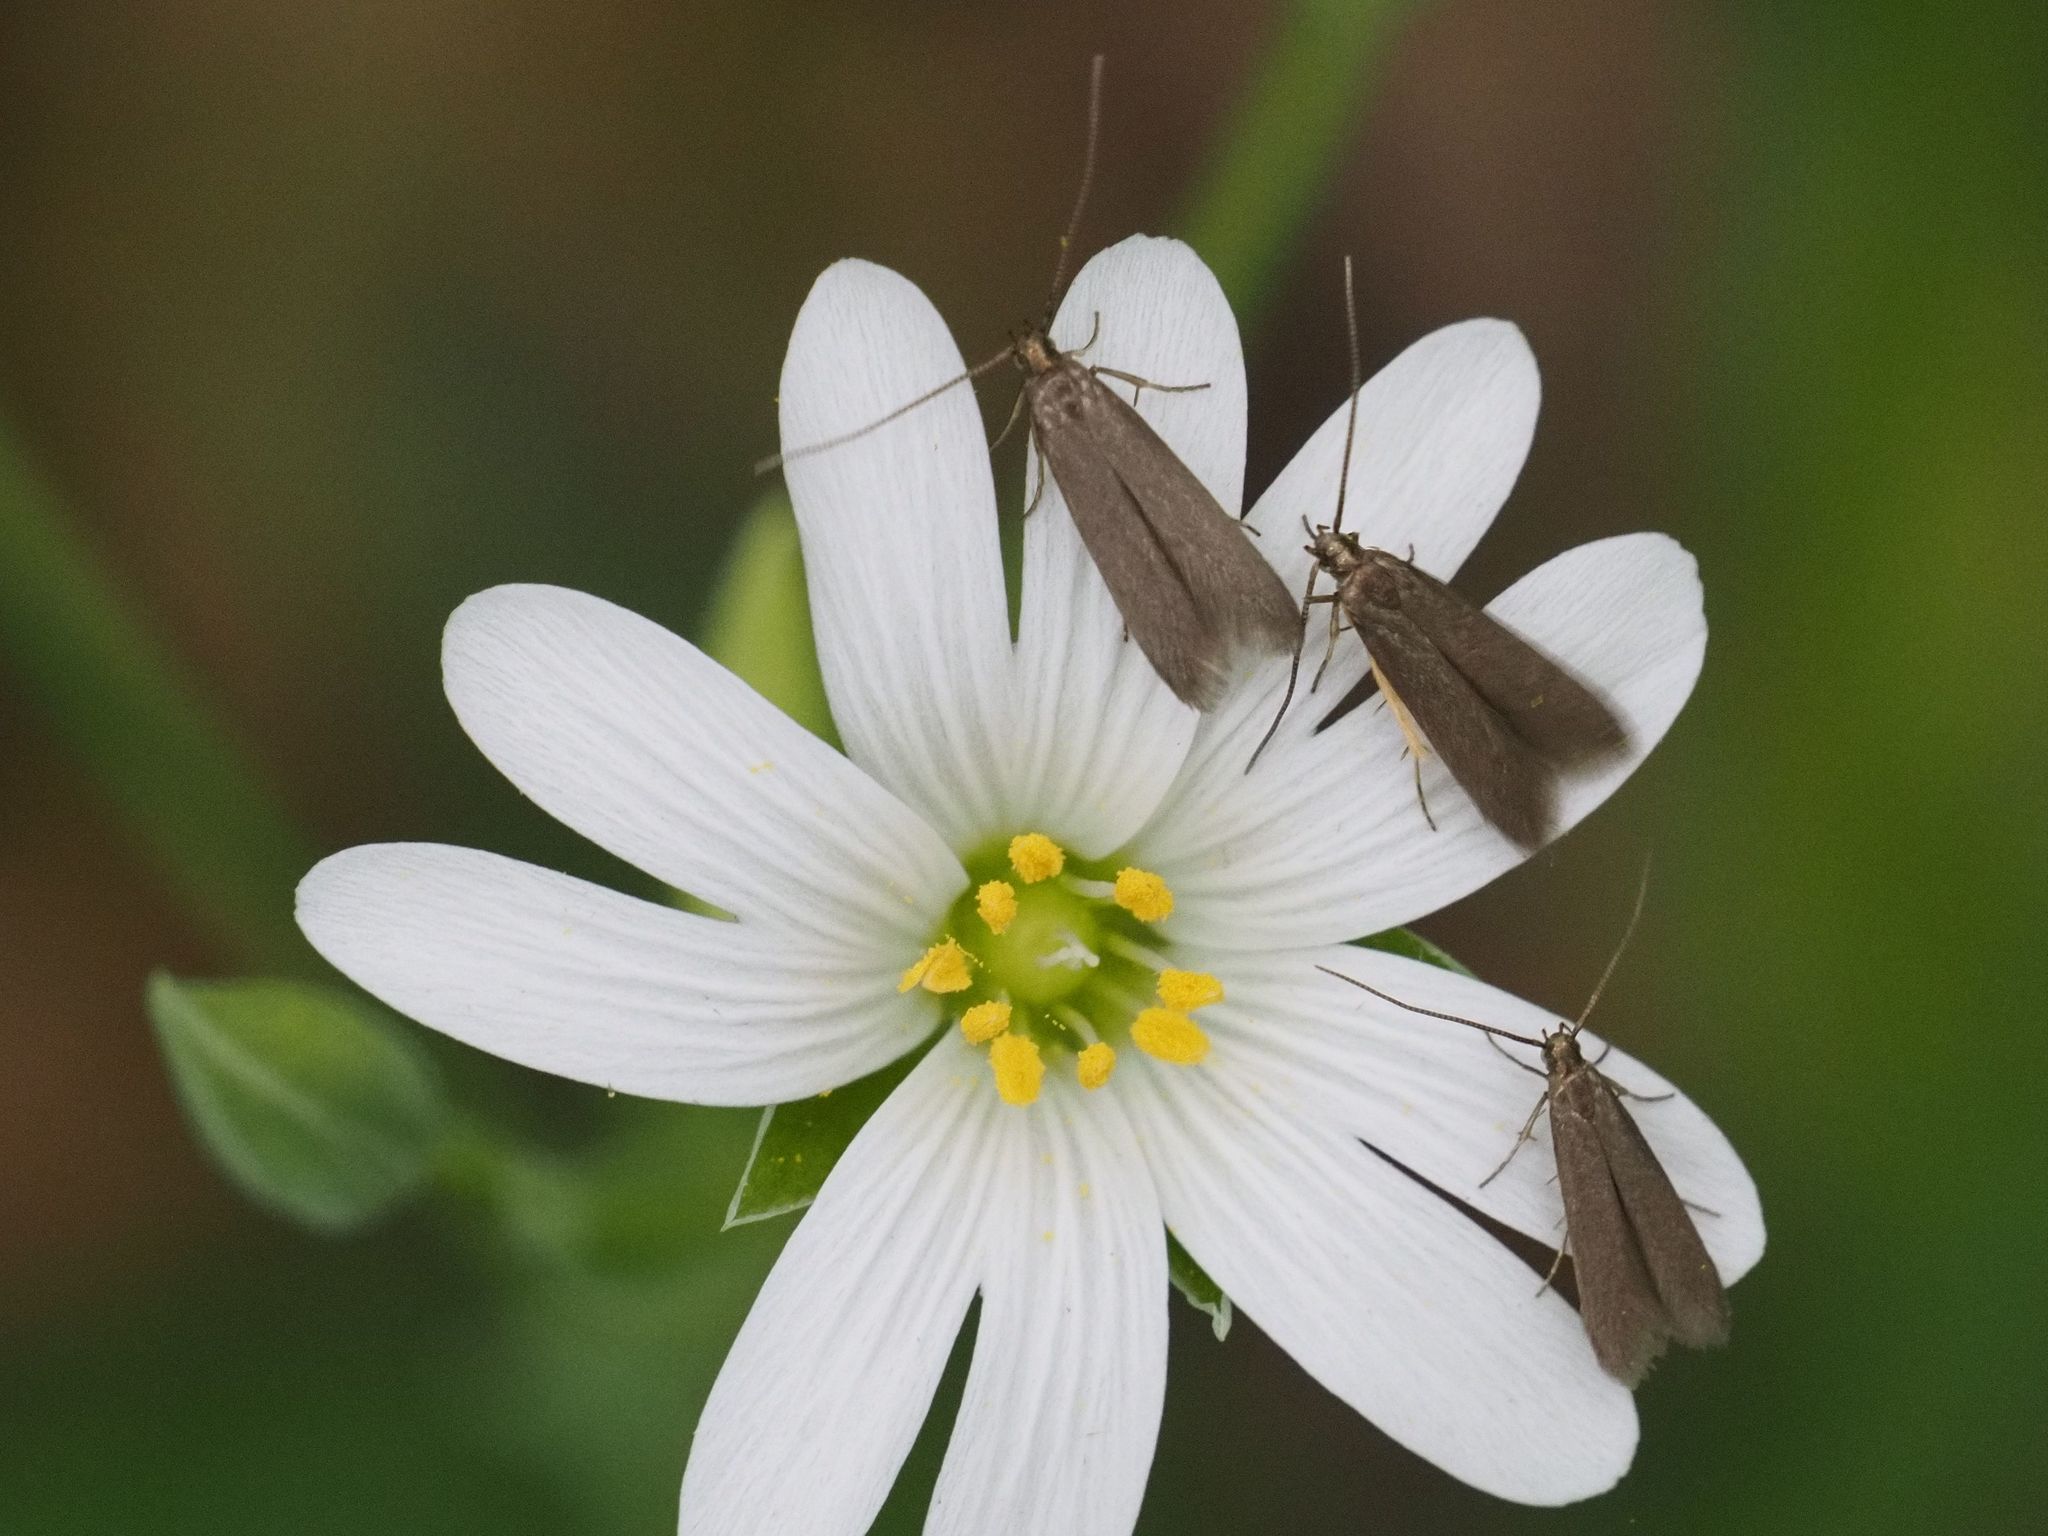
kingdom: Animalia
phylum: Arthropoda
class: Insecta
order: Lepidoptera
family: Coleophoridae
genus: Metriotes
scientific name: Metriotes lutarea
